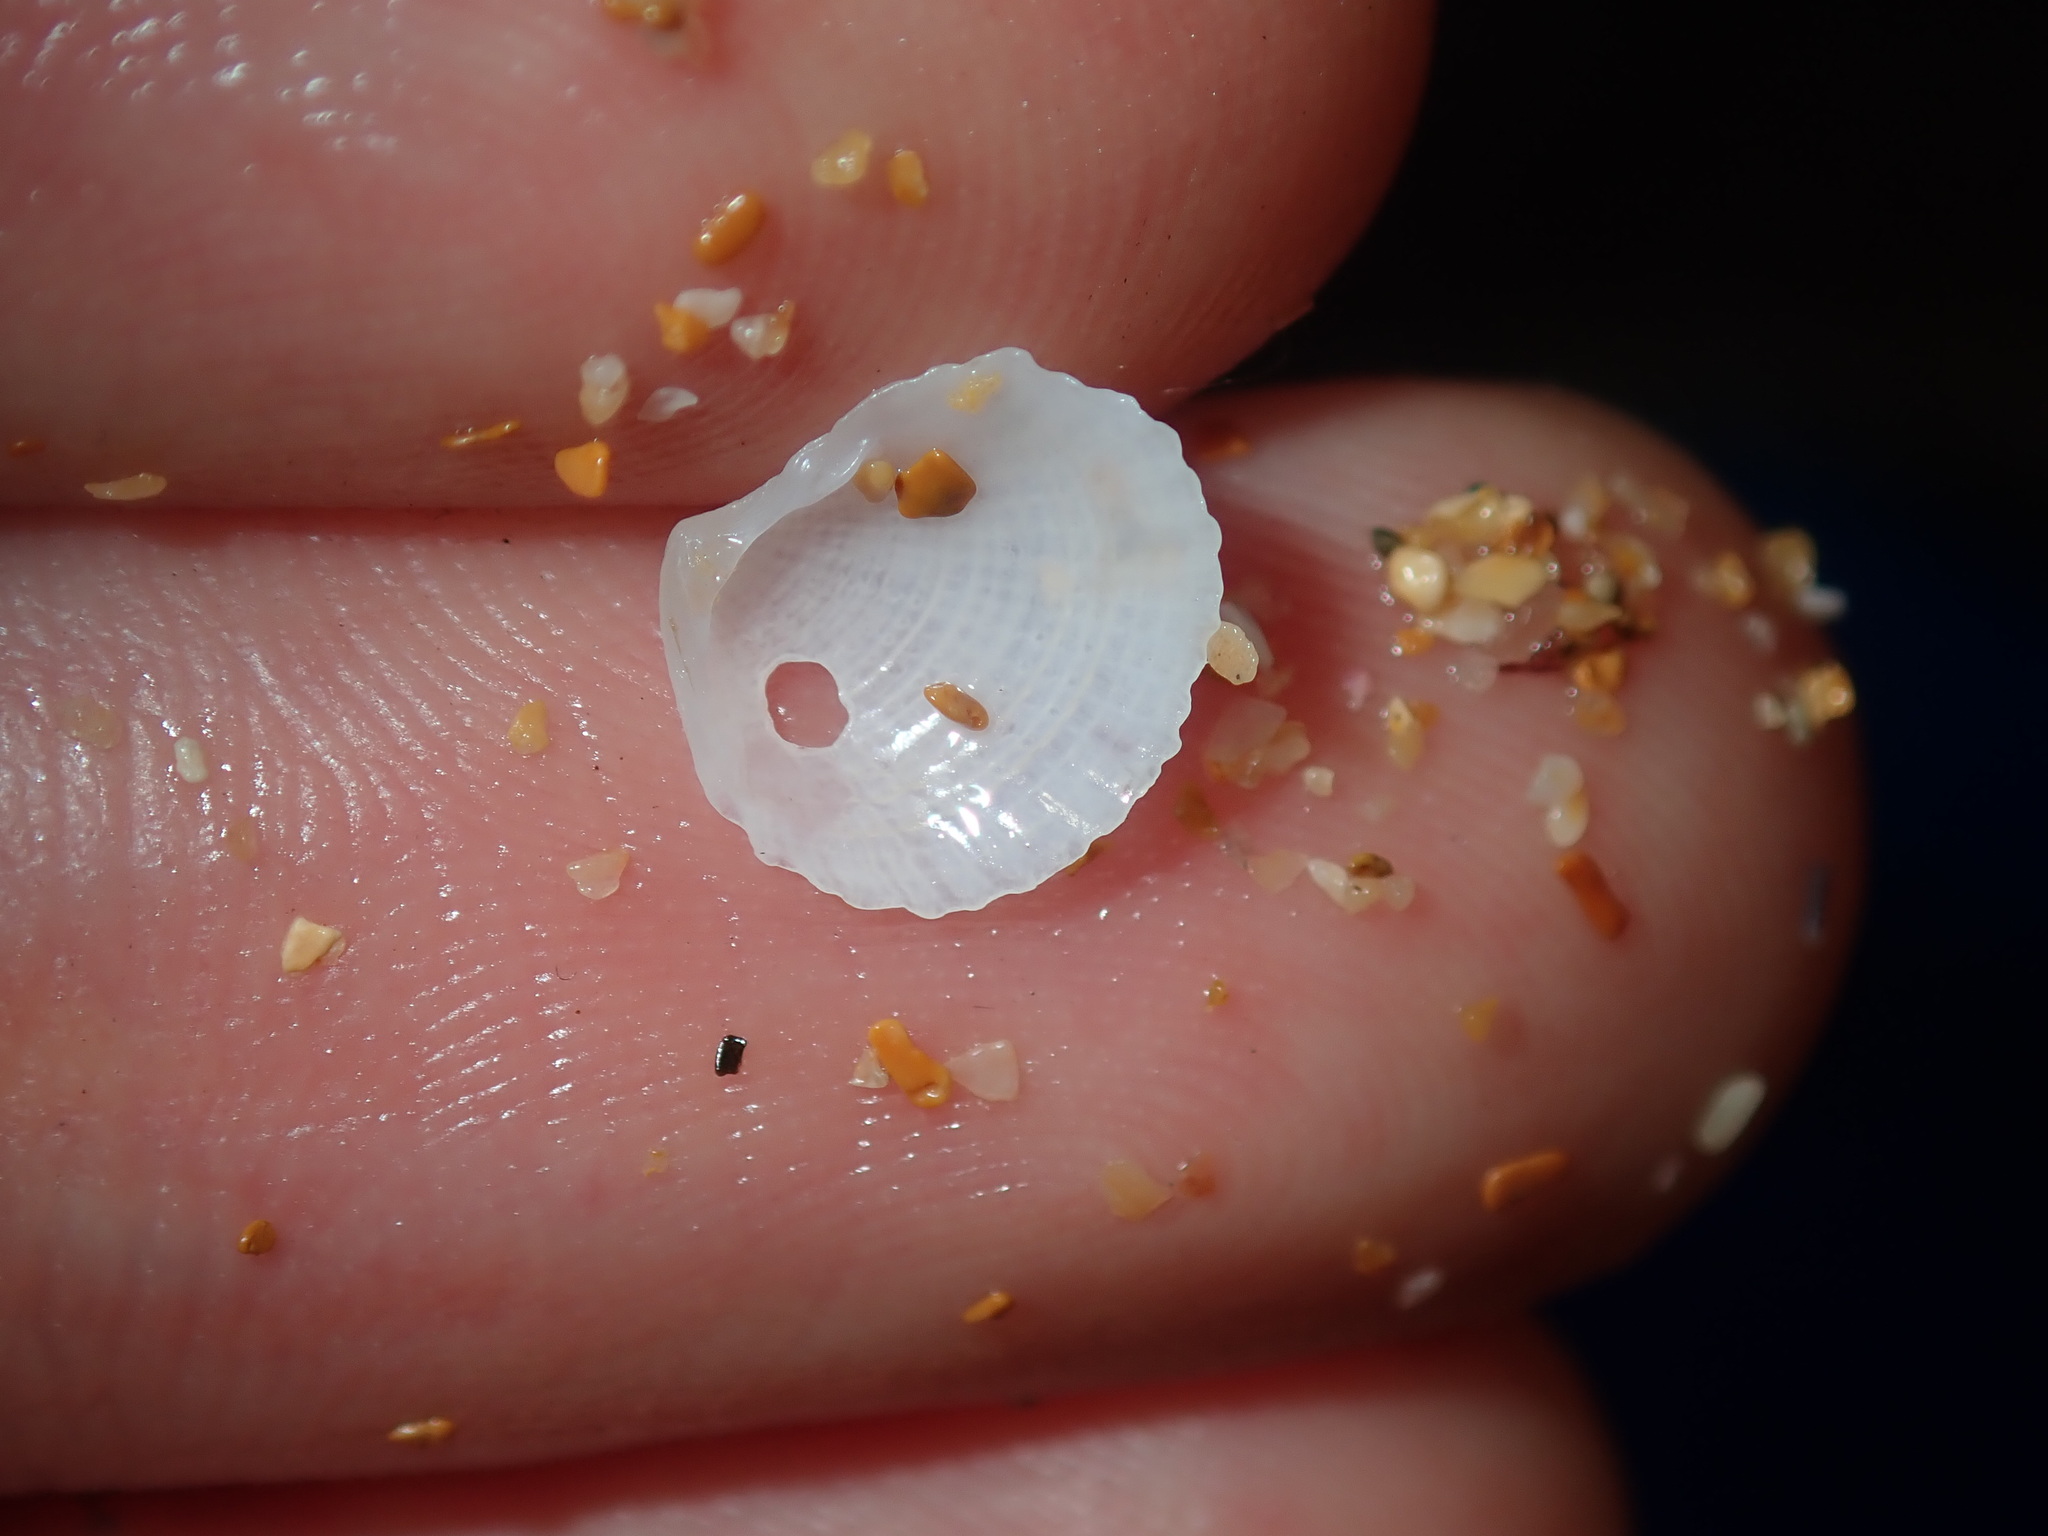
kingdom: Animalia
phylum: Mollusca
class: Bivalvia
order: Lucinida
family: Lucinidae
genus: Codakia
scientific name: Codakia rugifera
